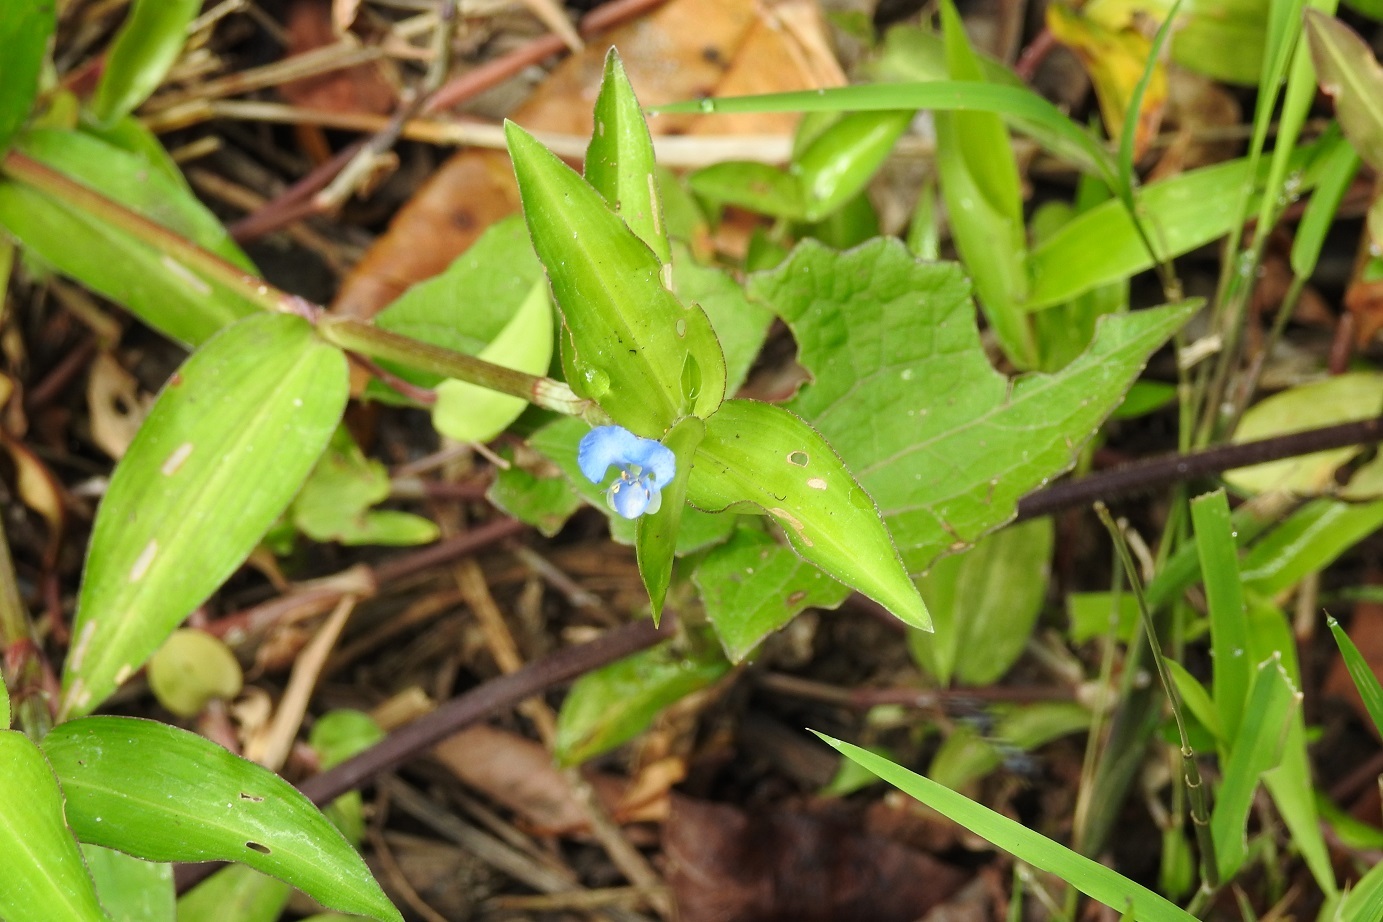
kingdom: Plantae
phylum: Tracheophyta
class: Liliopsida
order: Commelinales
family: Commelinaceae
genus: Commelina
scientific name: Commelina diffusa
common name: Climbing dayflower
